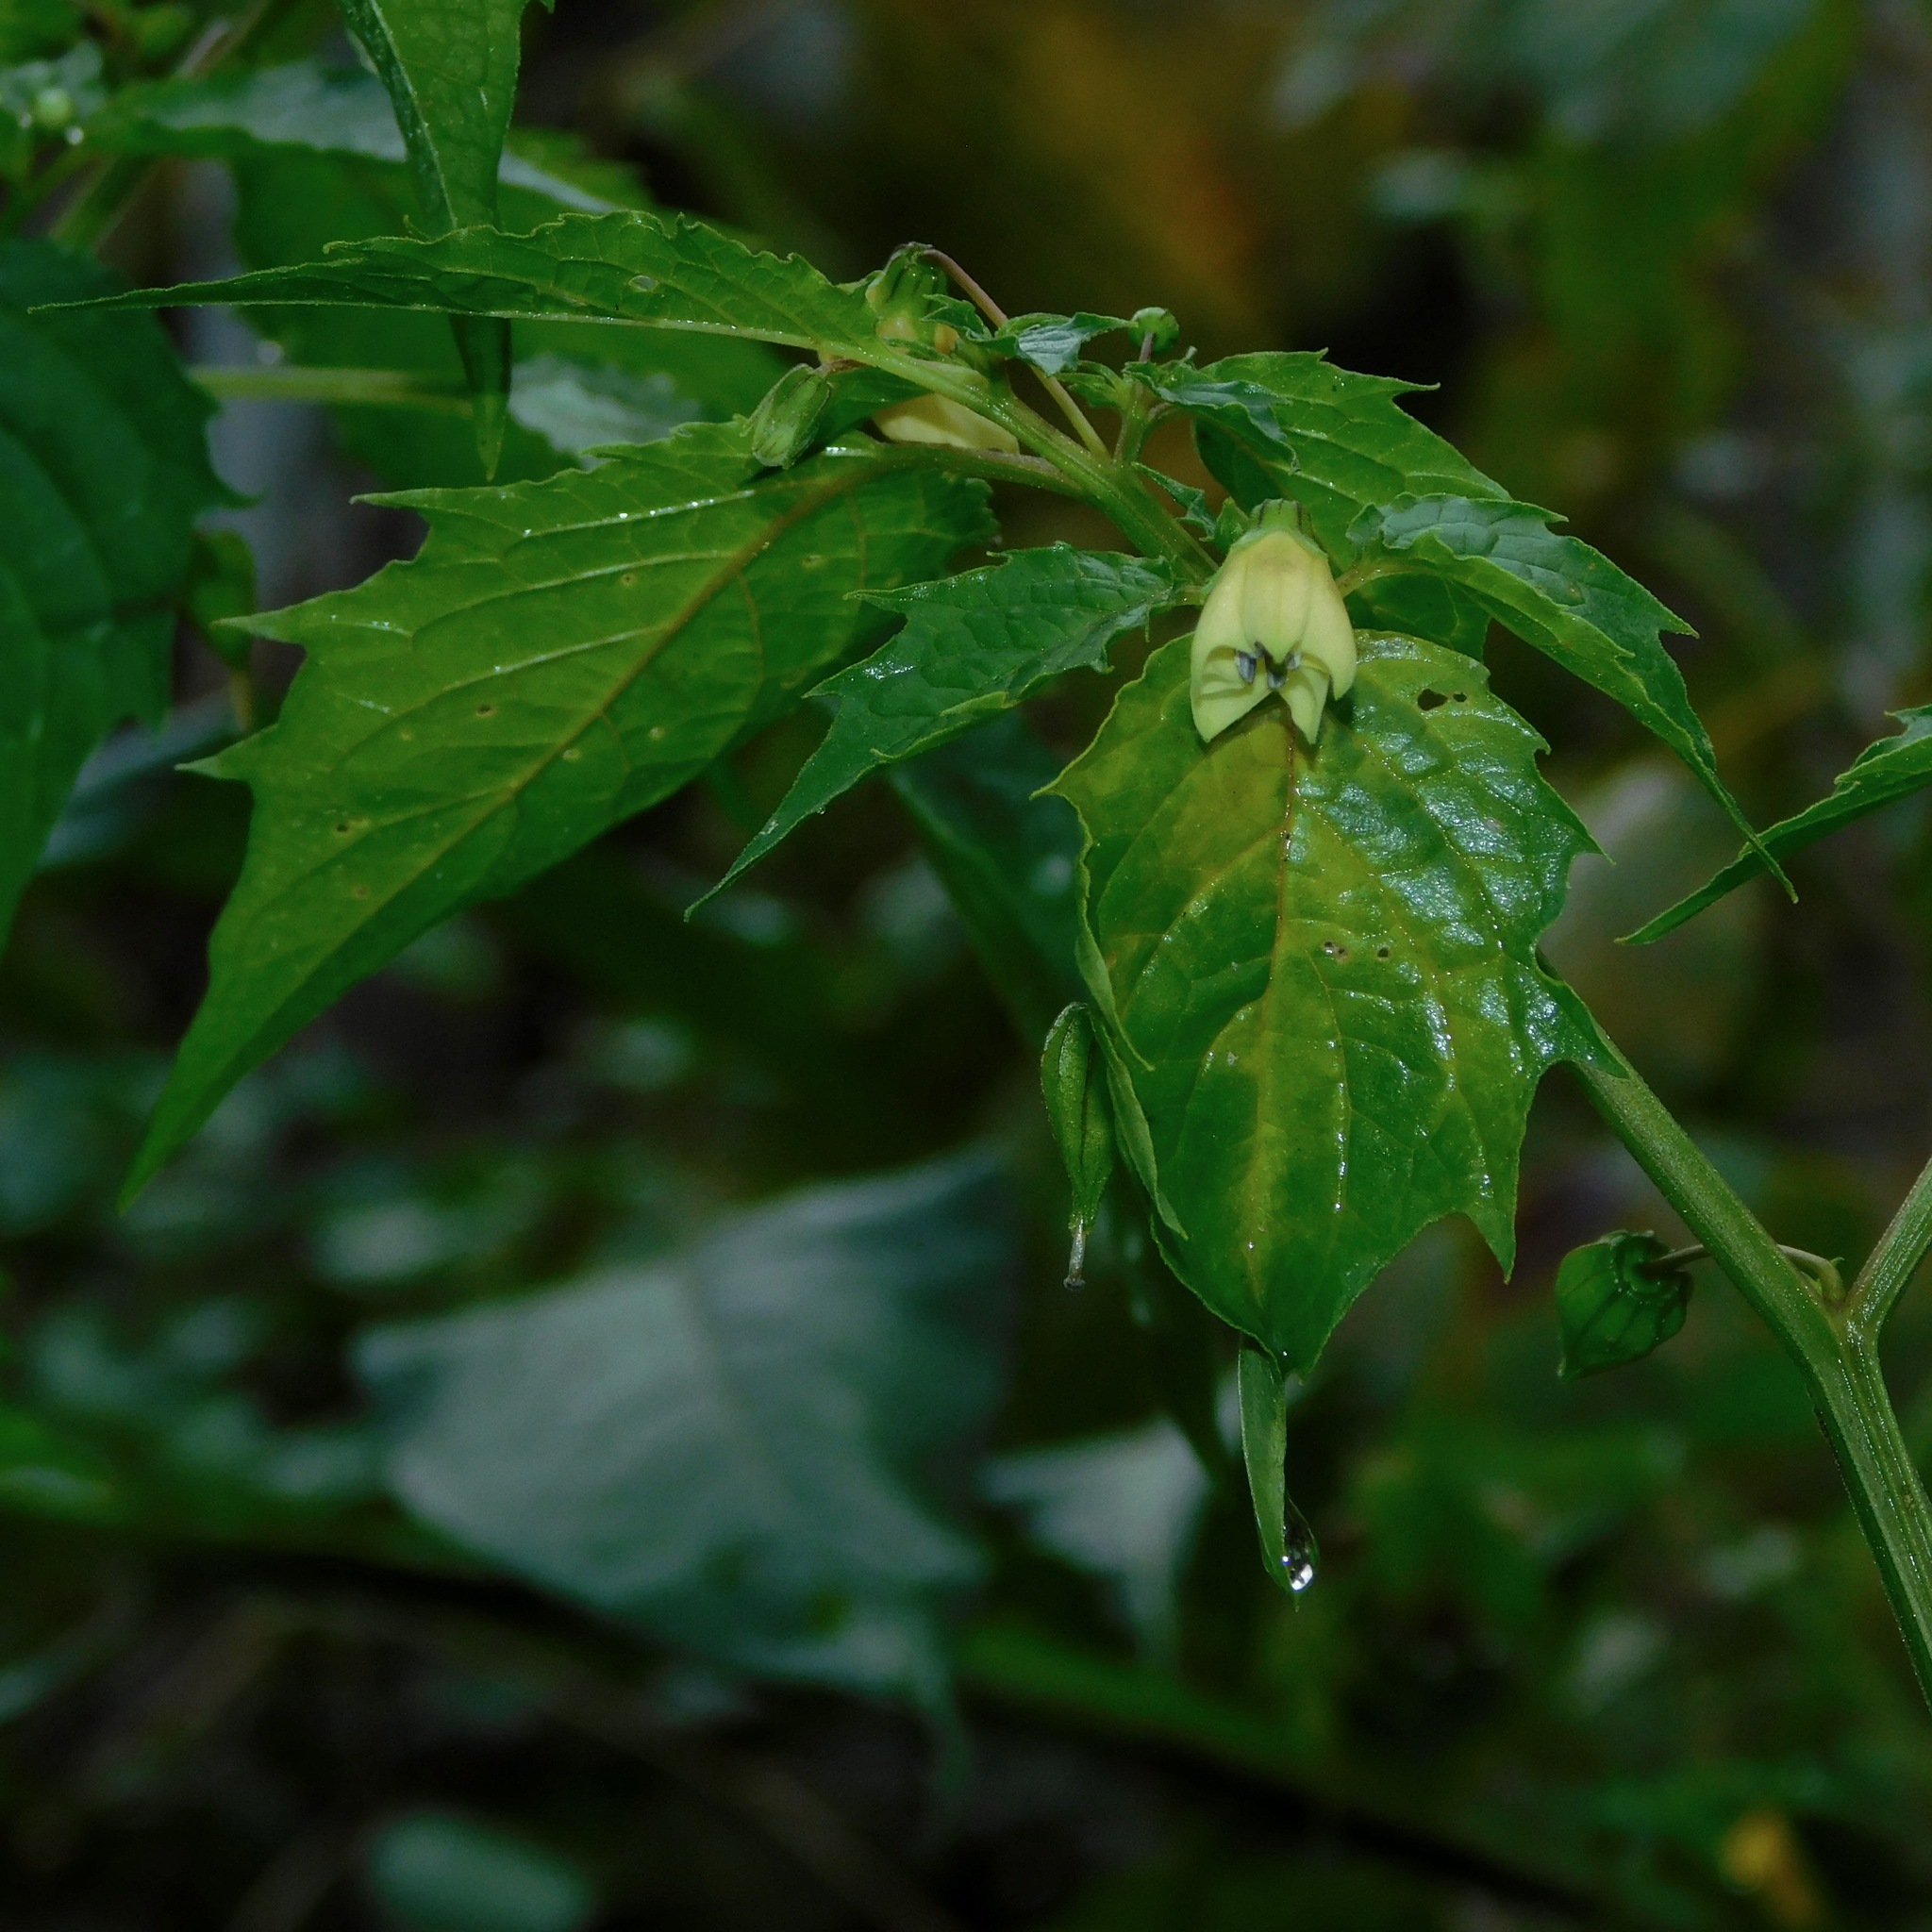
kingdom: Plantae
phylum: Tracheophyta
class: Magnoliopsida
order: Solanales
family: Solanaceae
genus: Physalis
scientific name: Physalis angulata
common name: Angular winter-cherry
